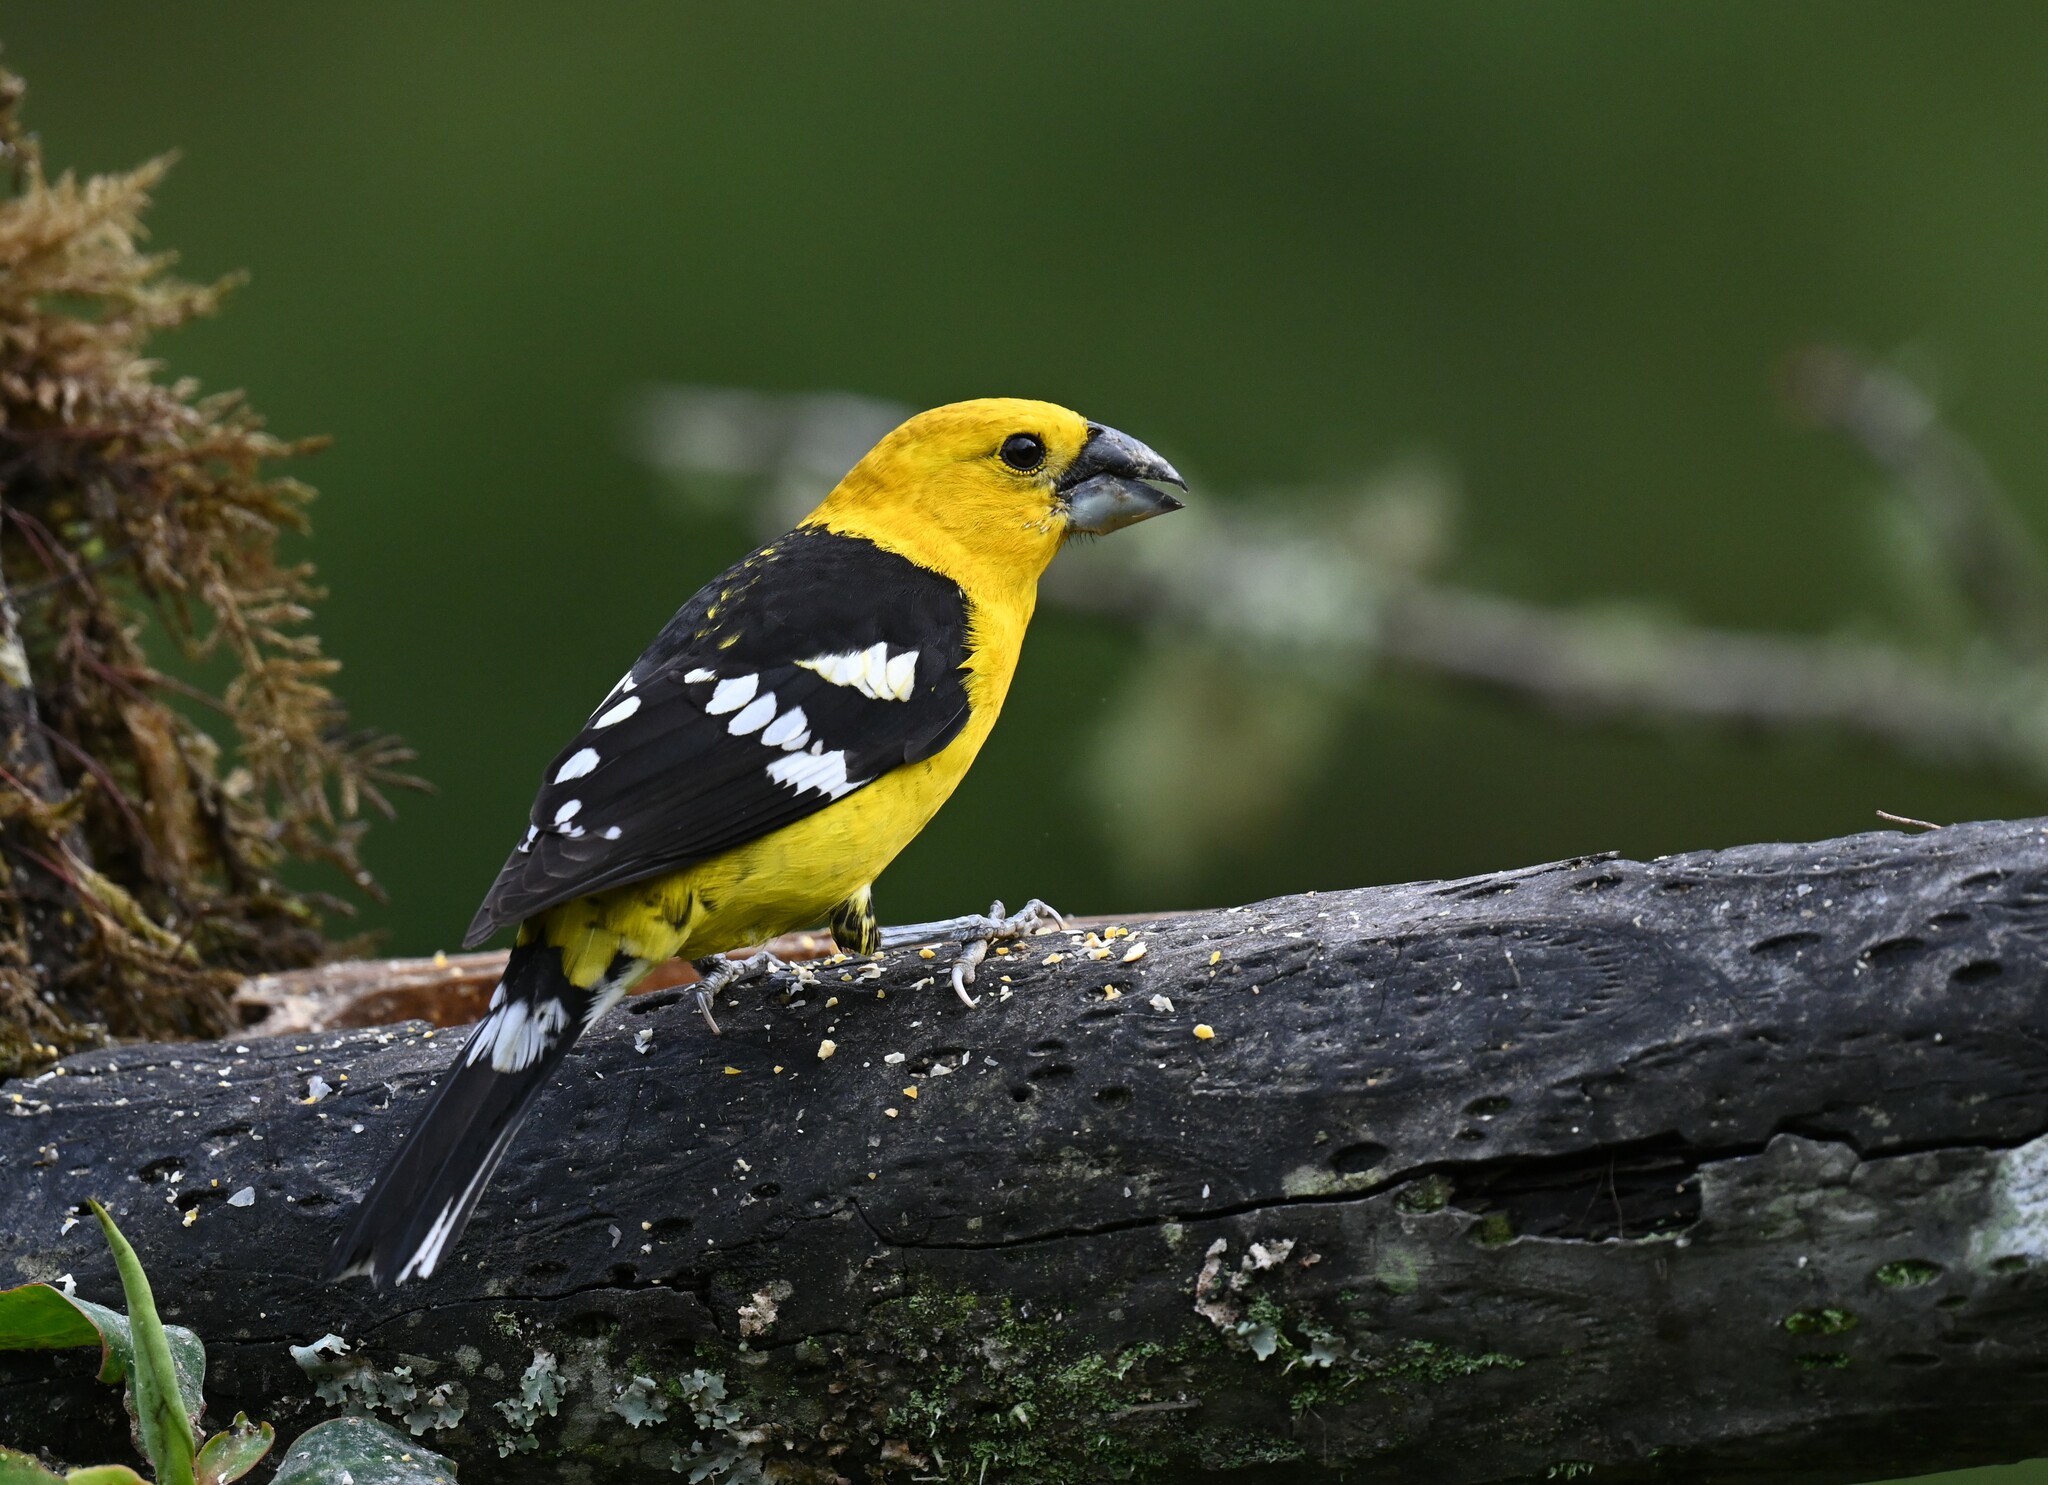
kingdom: Animalia
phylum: Chordata
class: Aves
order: Passeriformes
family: Cardinalidae
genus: Pheucticus
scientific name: Pheucticus chrysogaster
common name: Golden grosbeak
